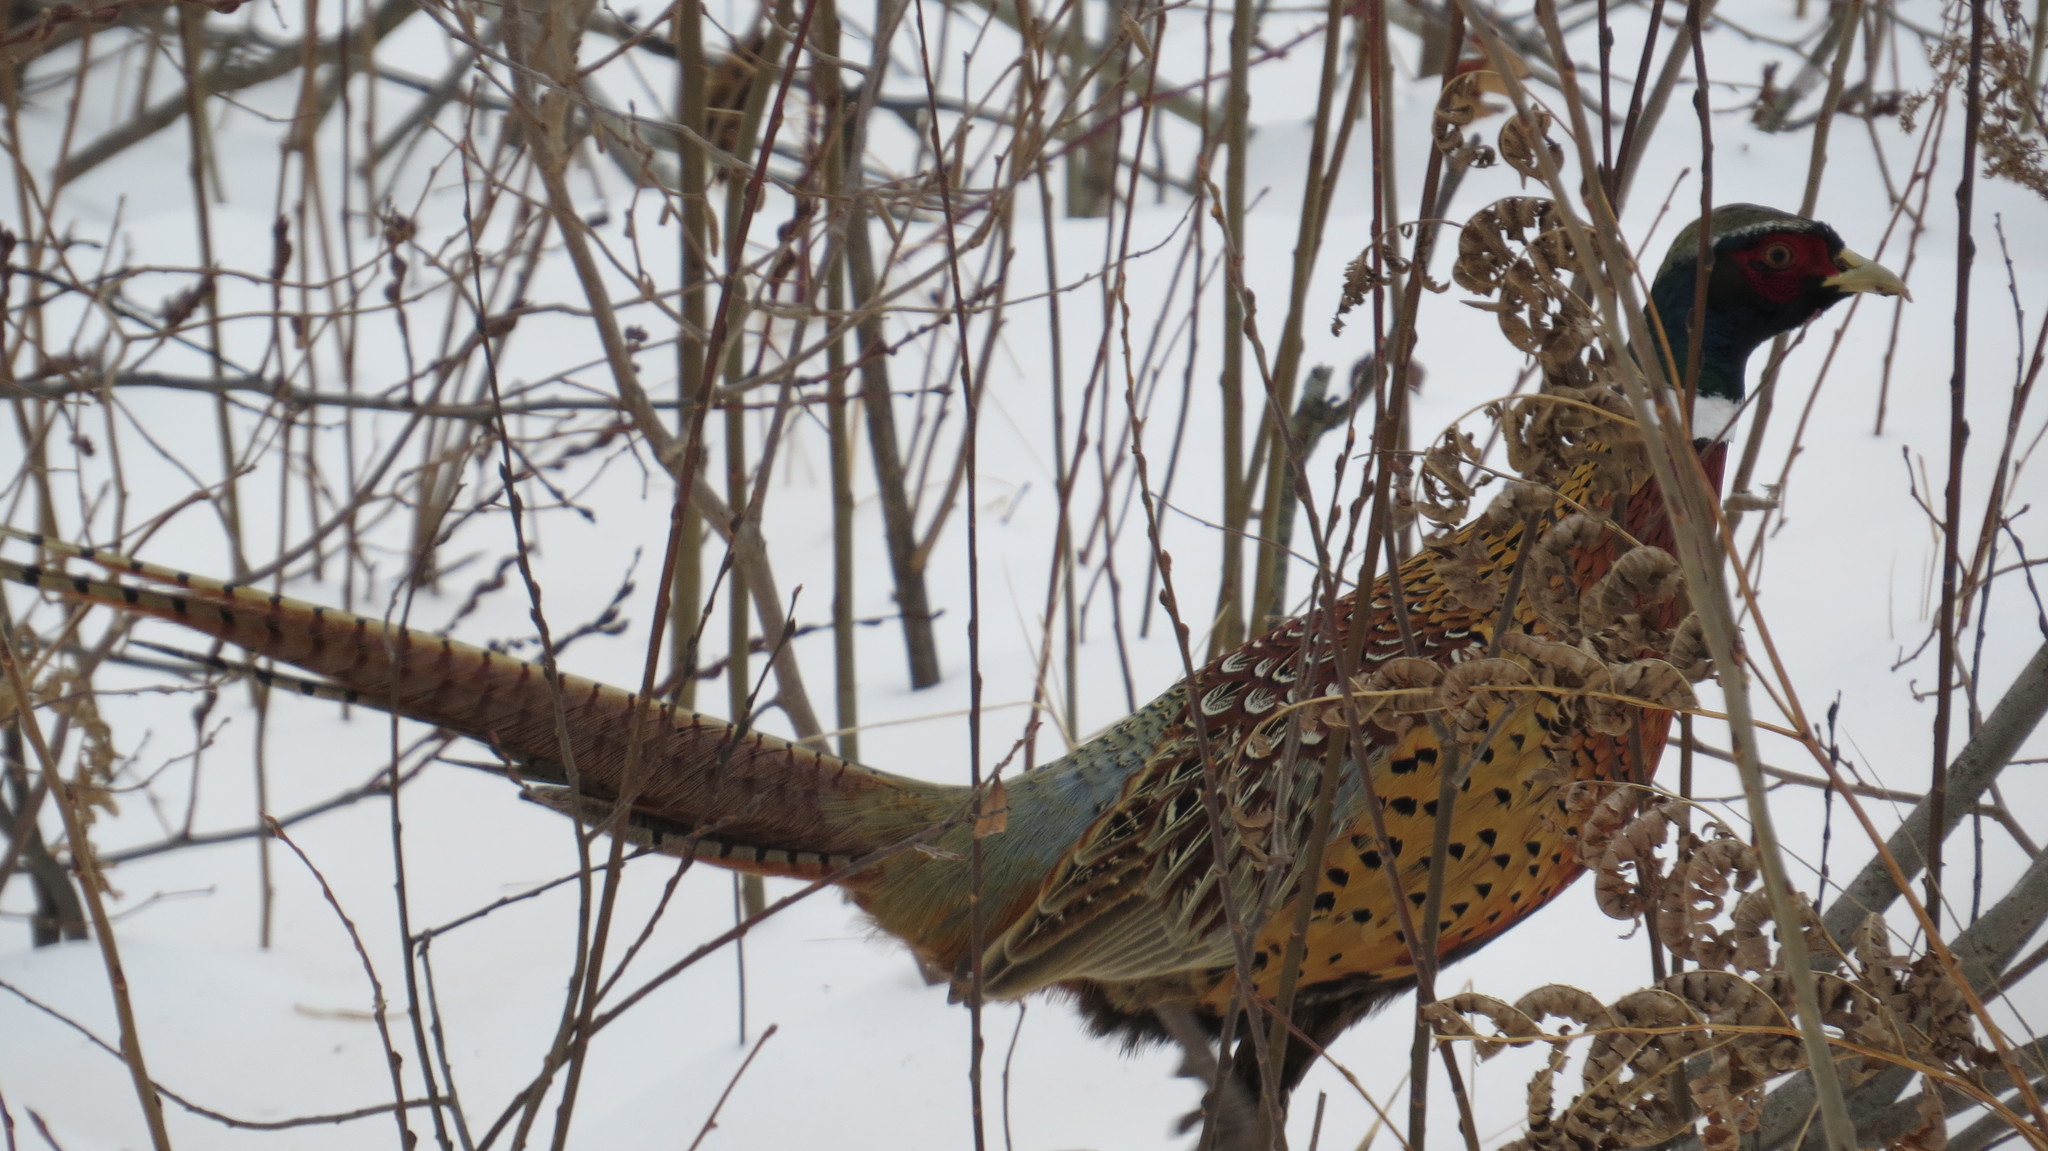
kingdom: Animalia
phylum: Chordata
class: Aves
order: Galliformes
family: Phasianidae
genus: Phasianus
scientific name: Phasianus colchicus
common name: Common pheasant
